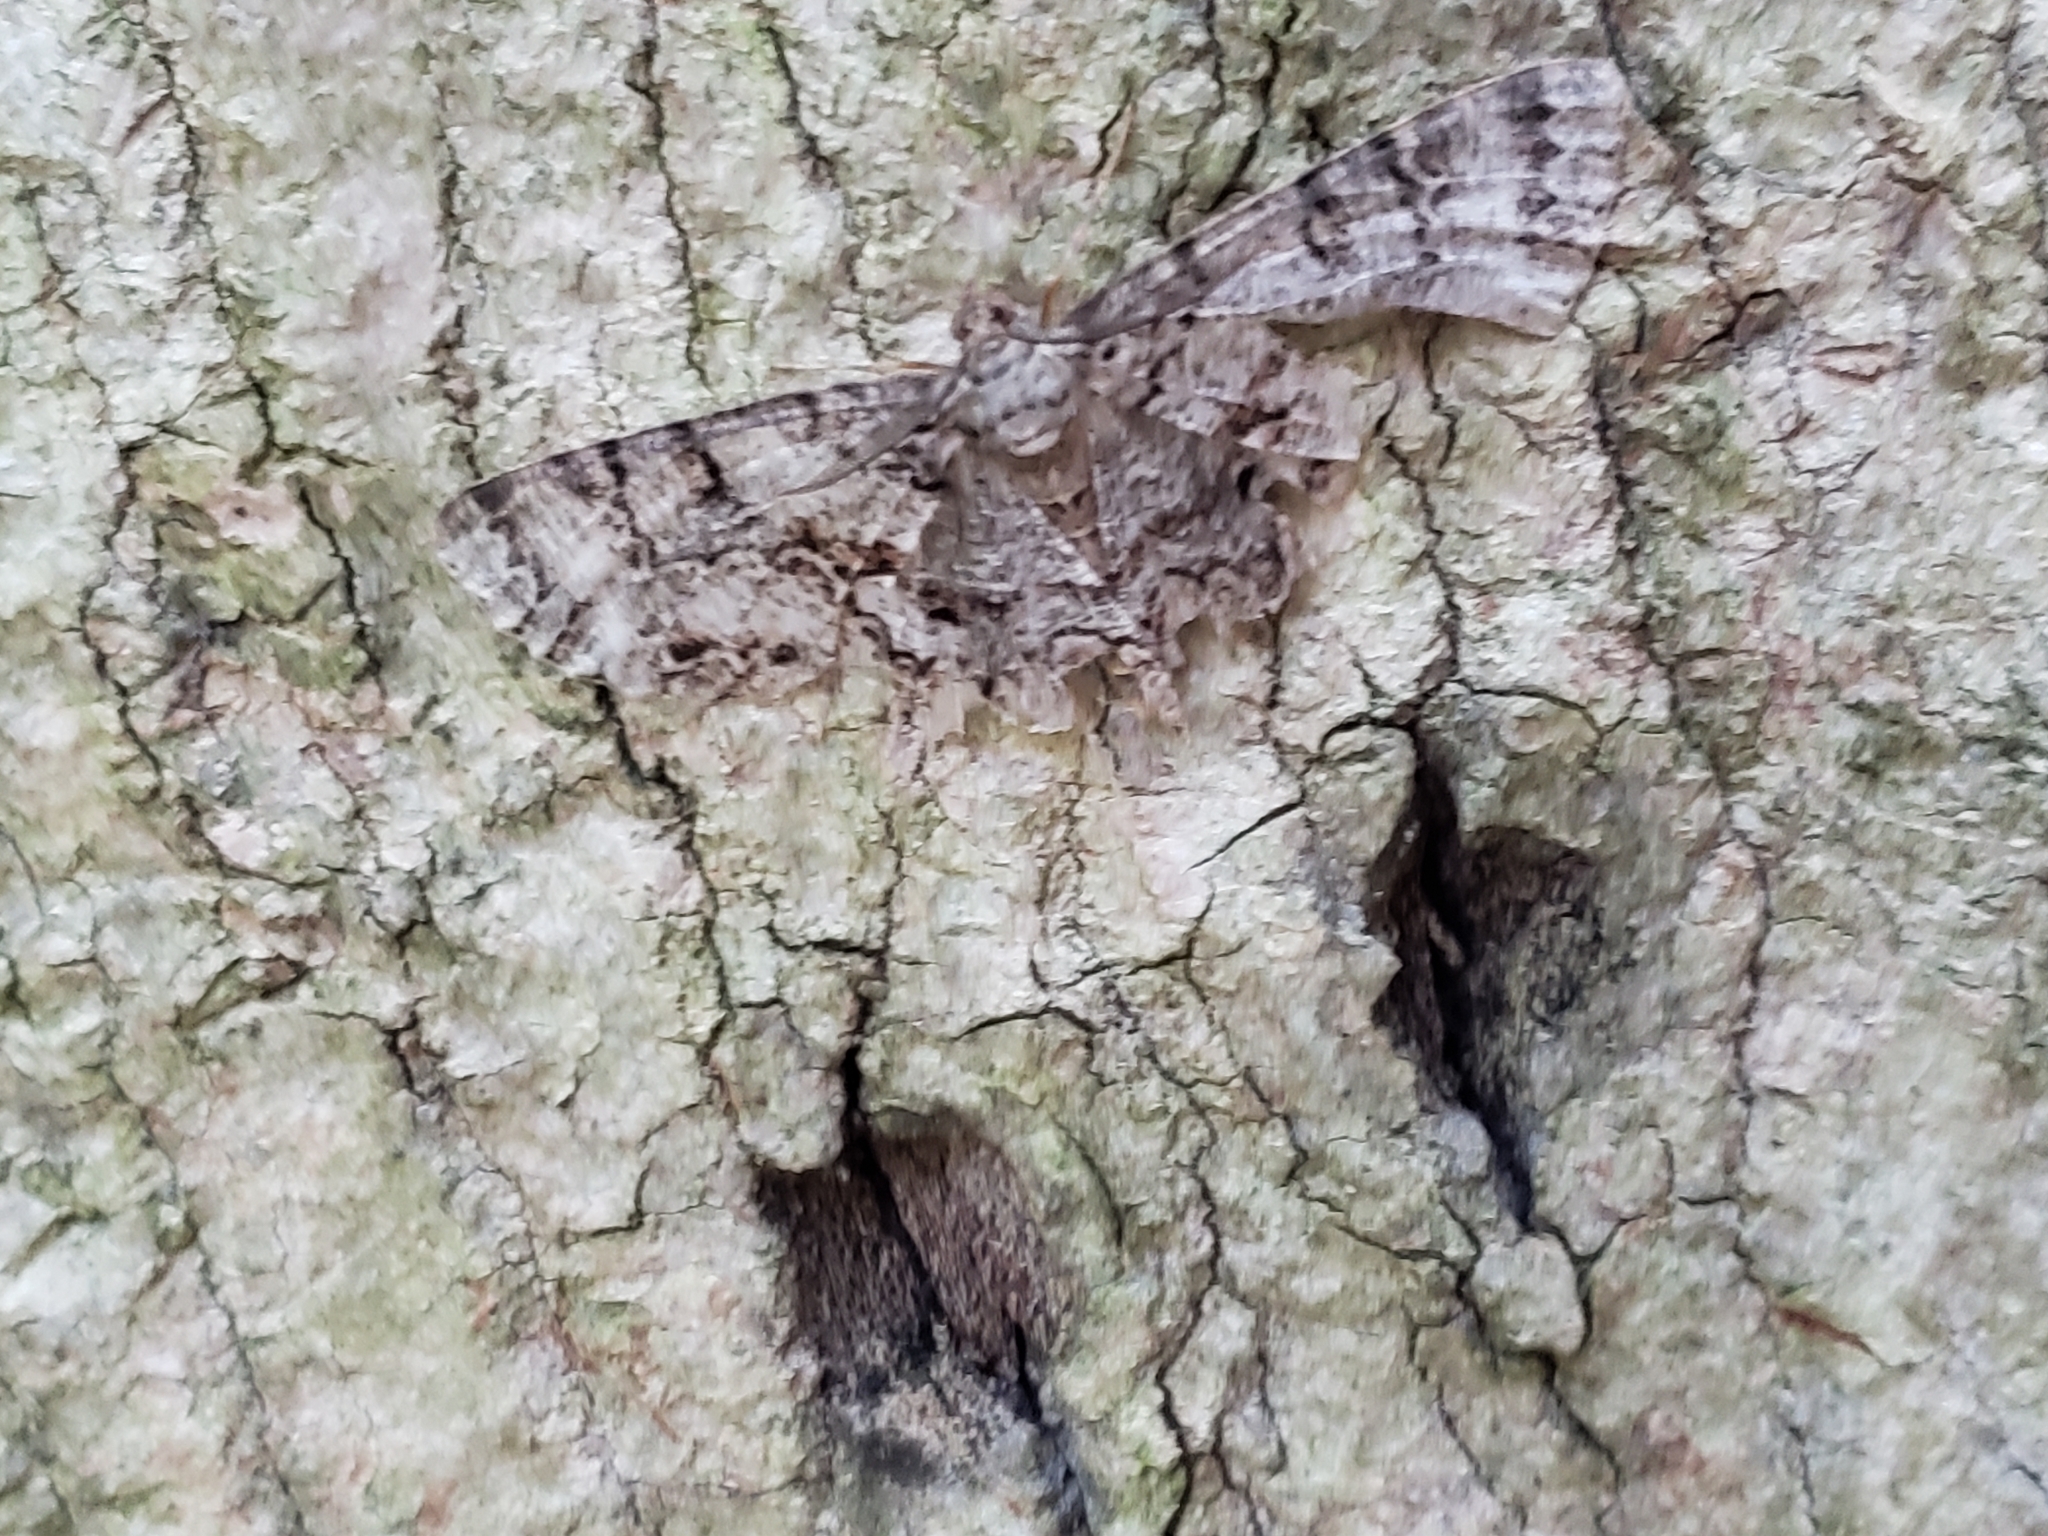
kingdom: Animalia
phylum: Arthropoda
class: Insecta
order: Lepidoptera
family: Geometridae
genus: Epimecis
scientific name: Epimecis hortaria
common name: Tulip-tree beauty
